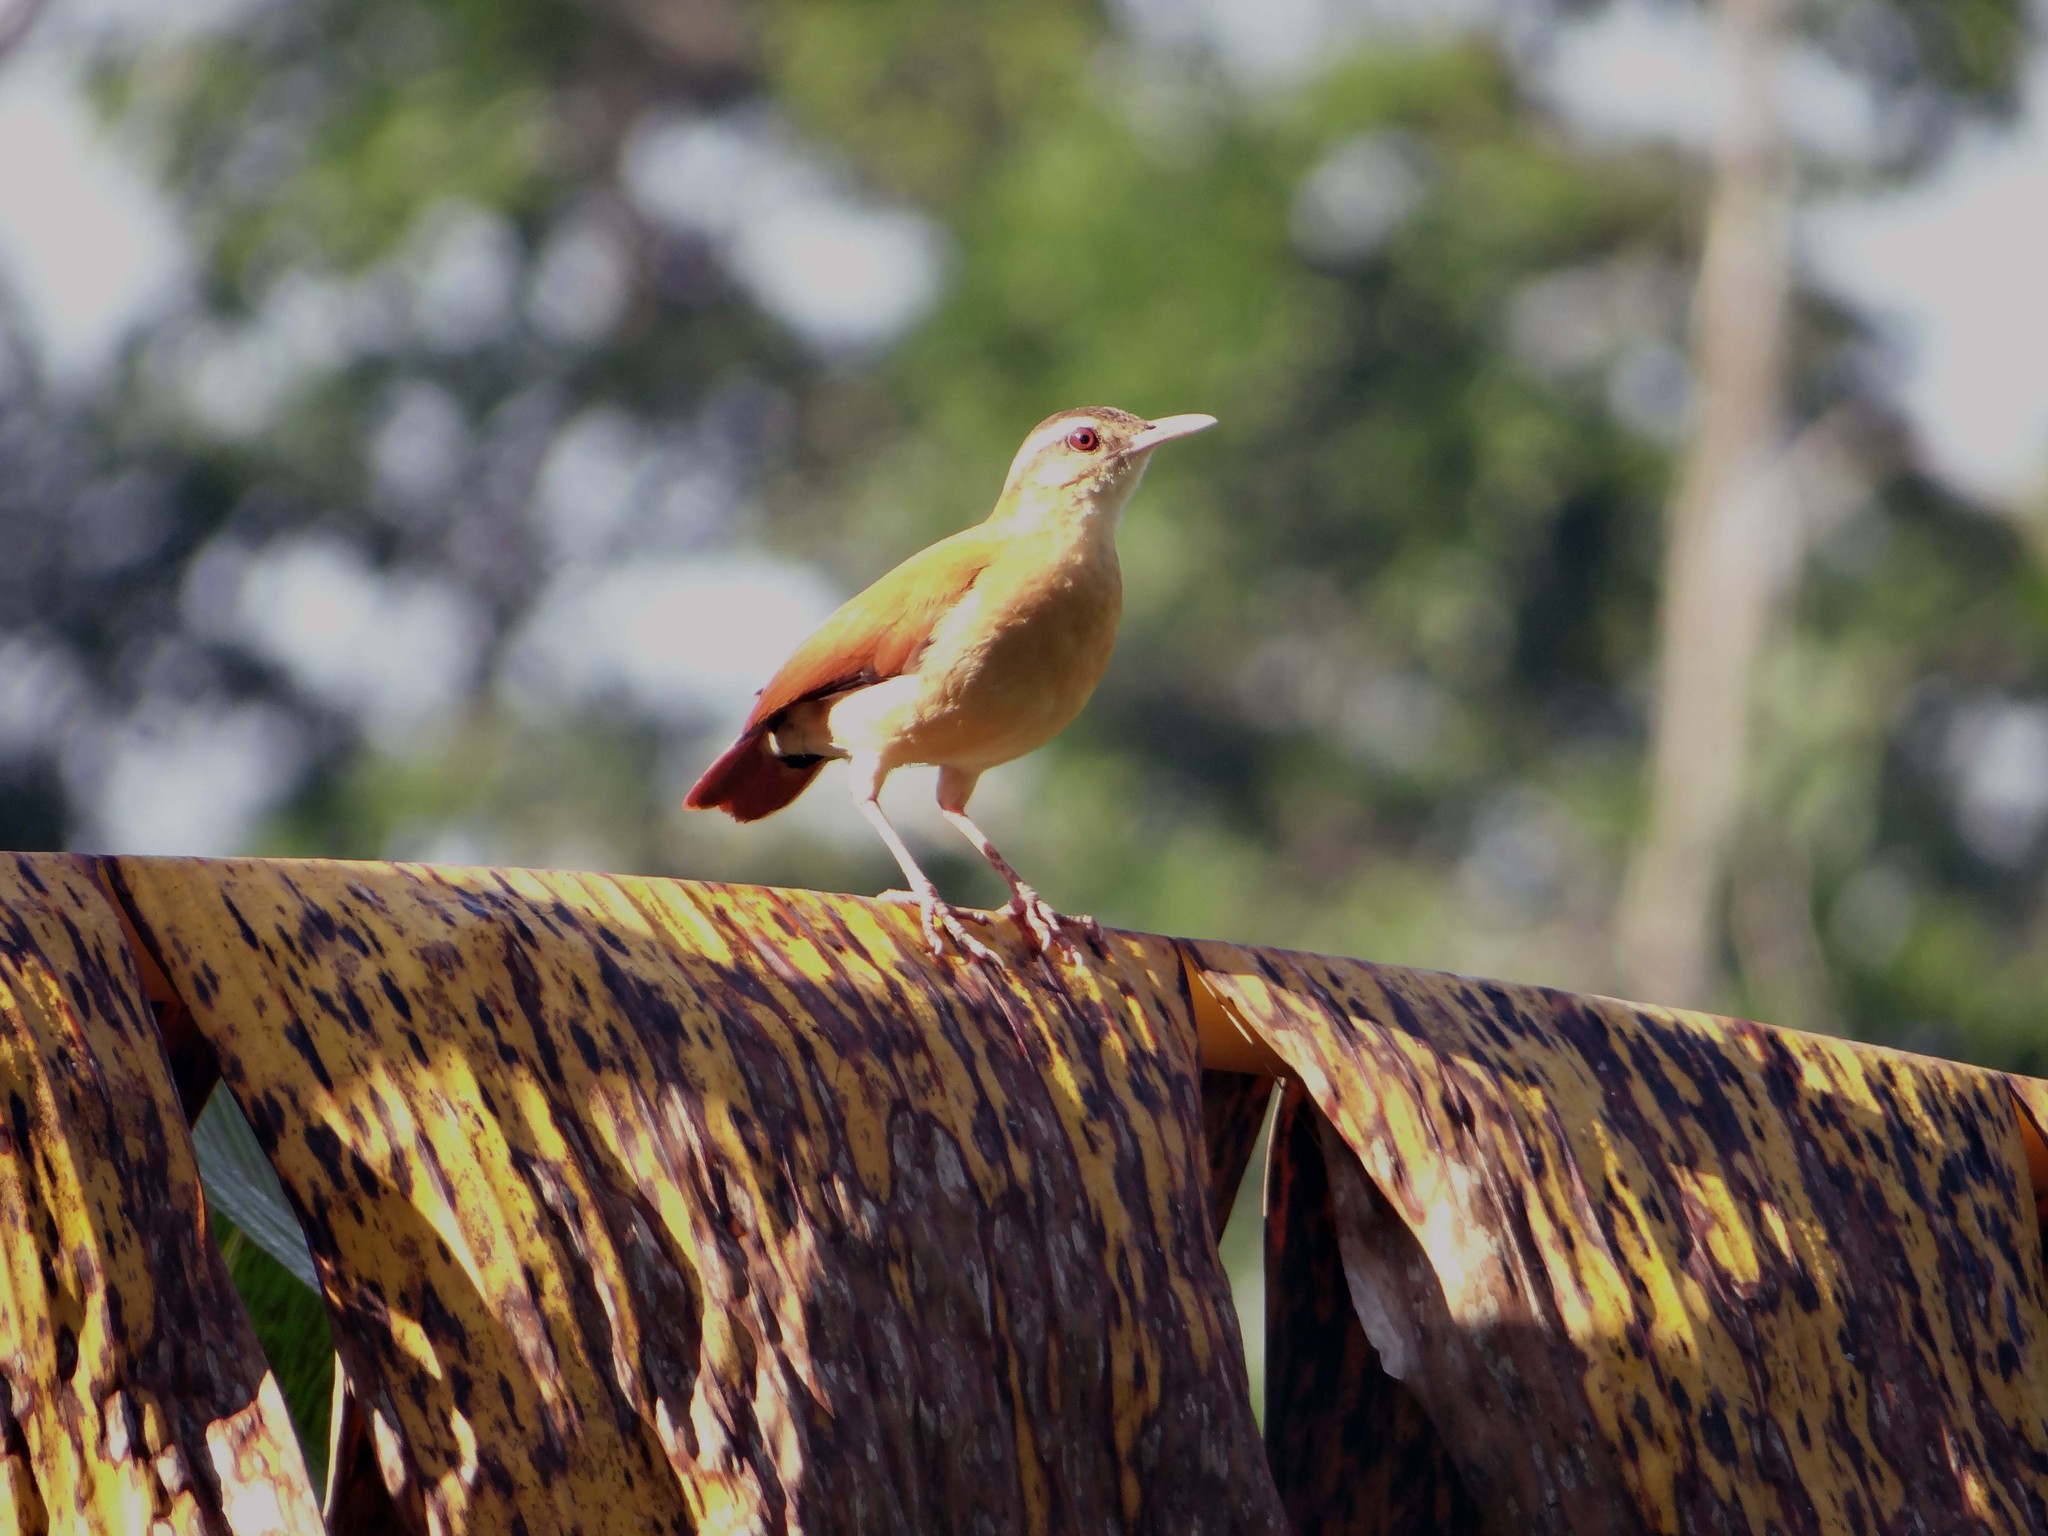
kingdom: Animalia
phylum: Chordata
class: Aves
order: Passeriformes
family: Furnariidae
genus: Furnarius
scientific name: Furnarius leucopus
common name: Pale-legged hornero
